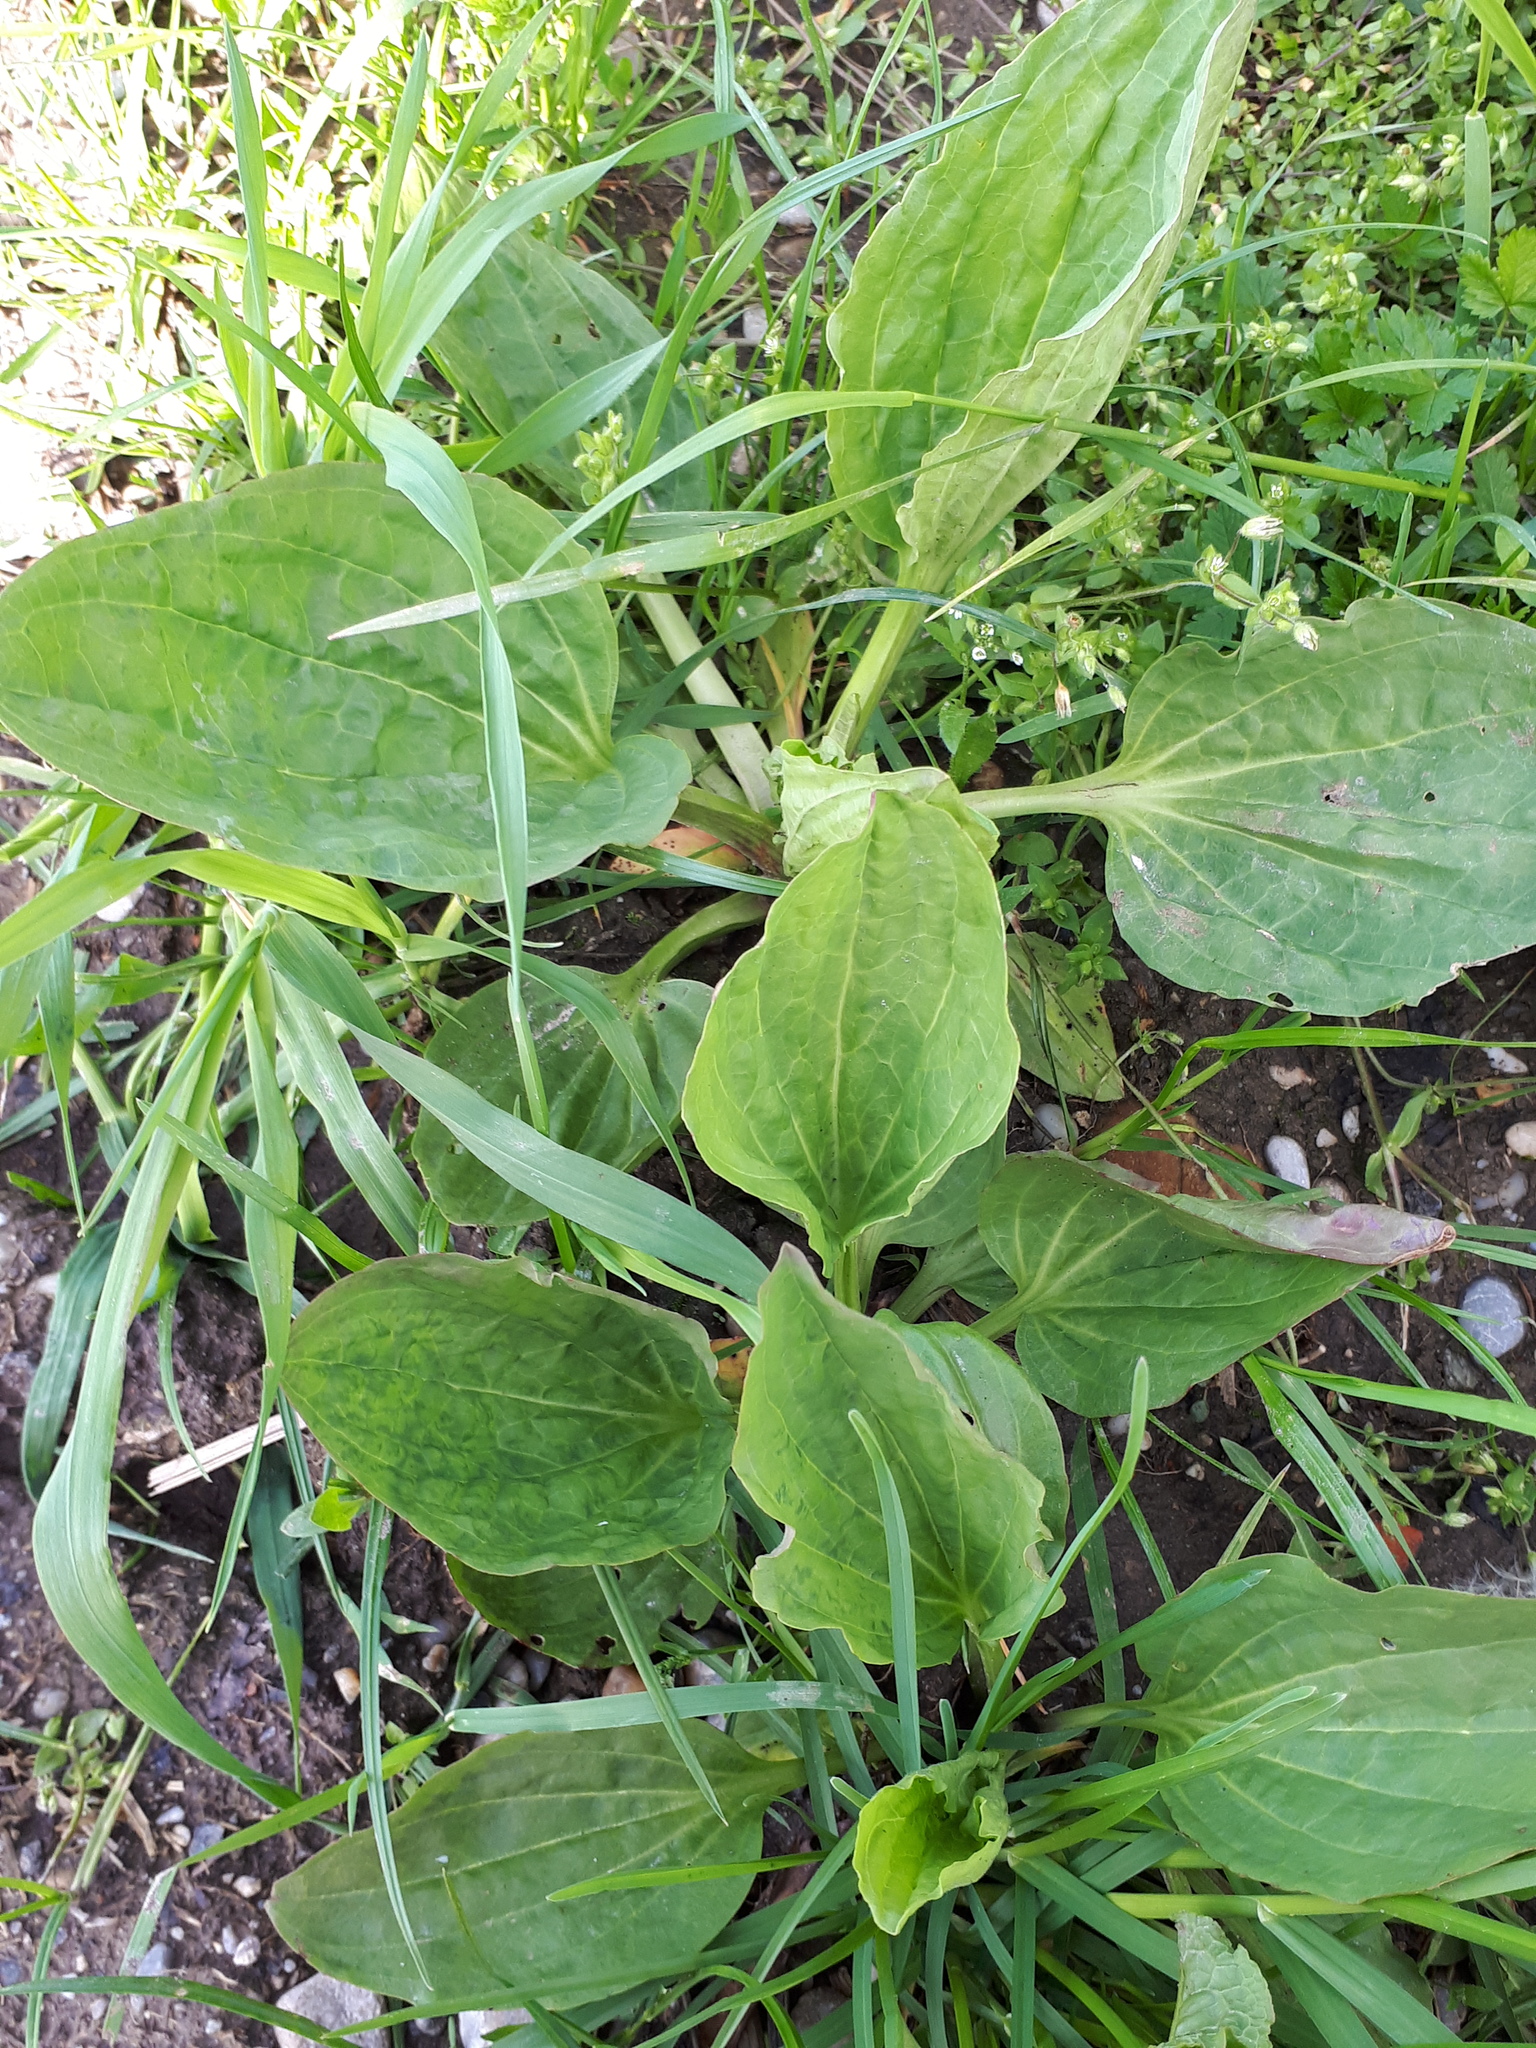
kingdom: Plantae
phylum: Tracheophyta
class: Magnoliopsida
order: Lamiales
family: Plantaginaceae
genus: Plantago
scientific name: Plantago major
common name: Common plantain
